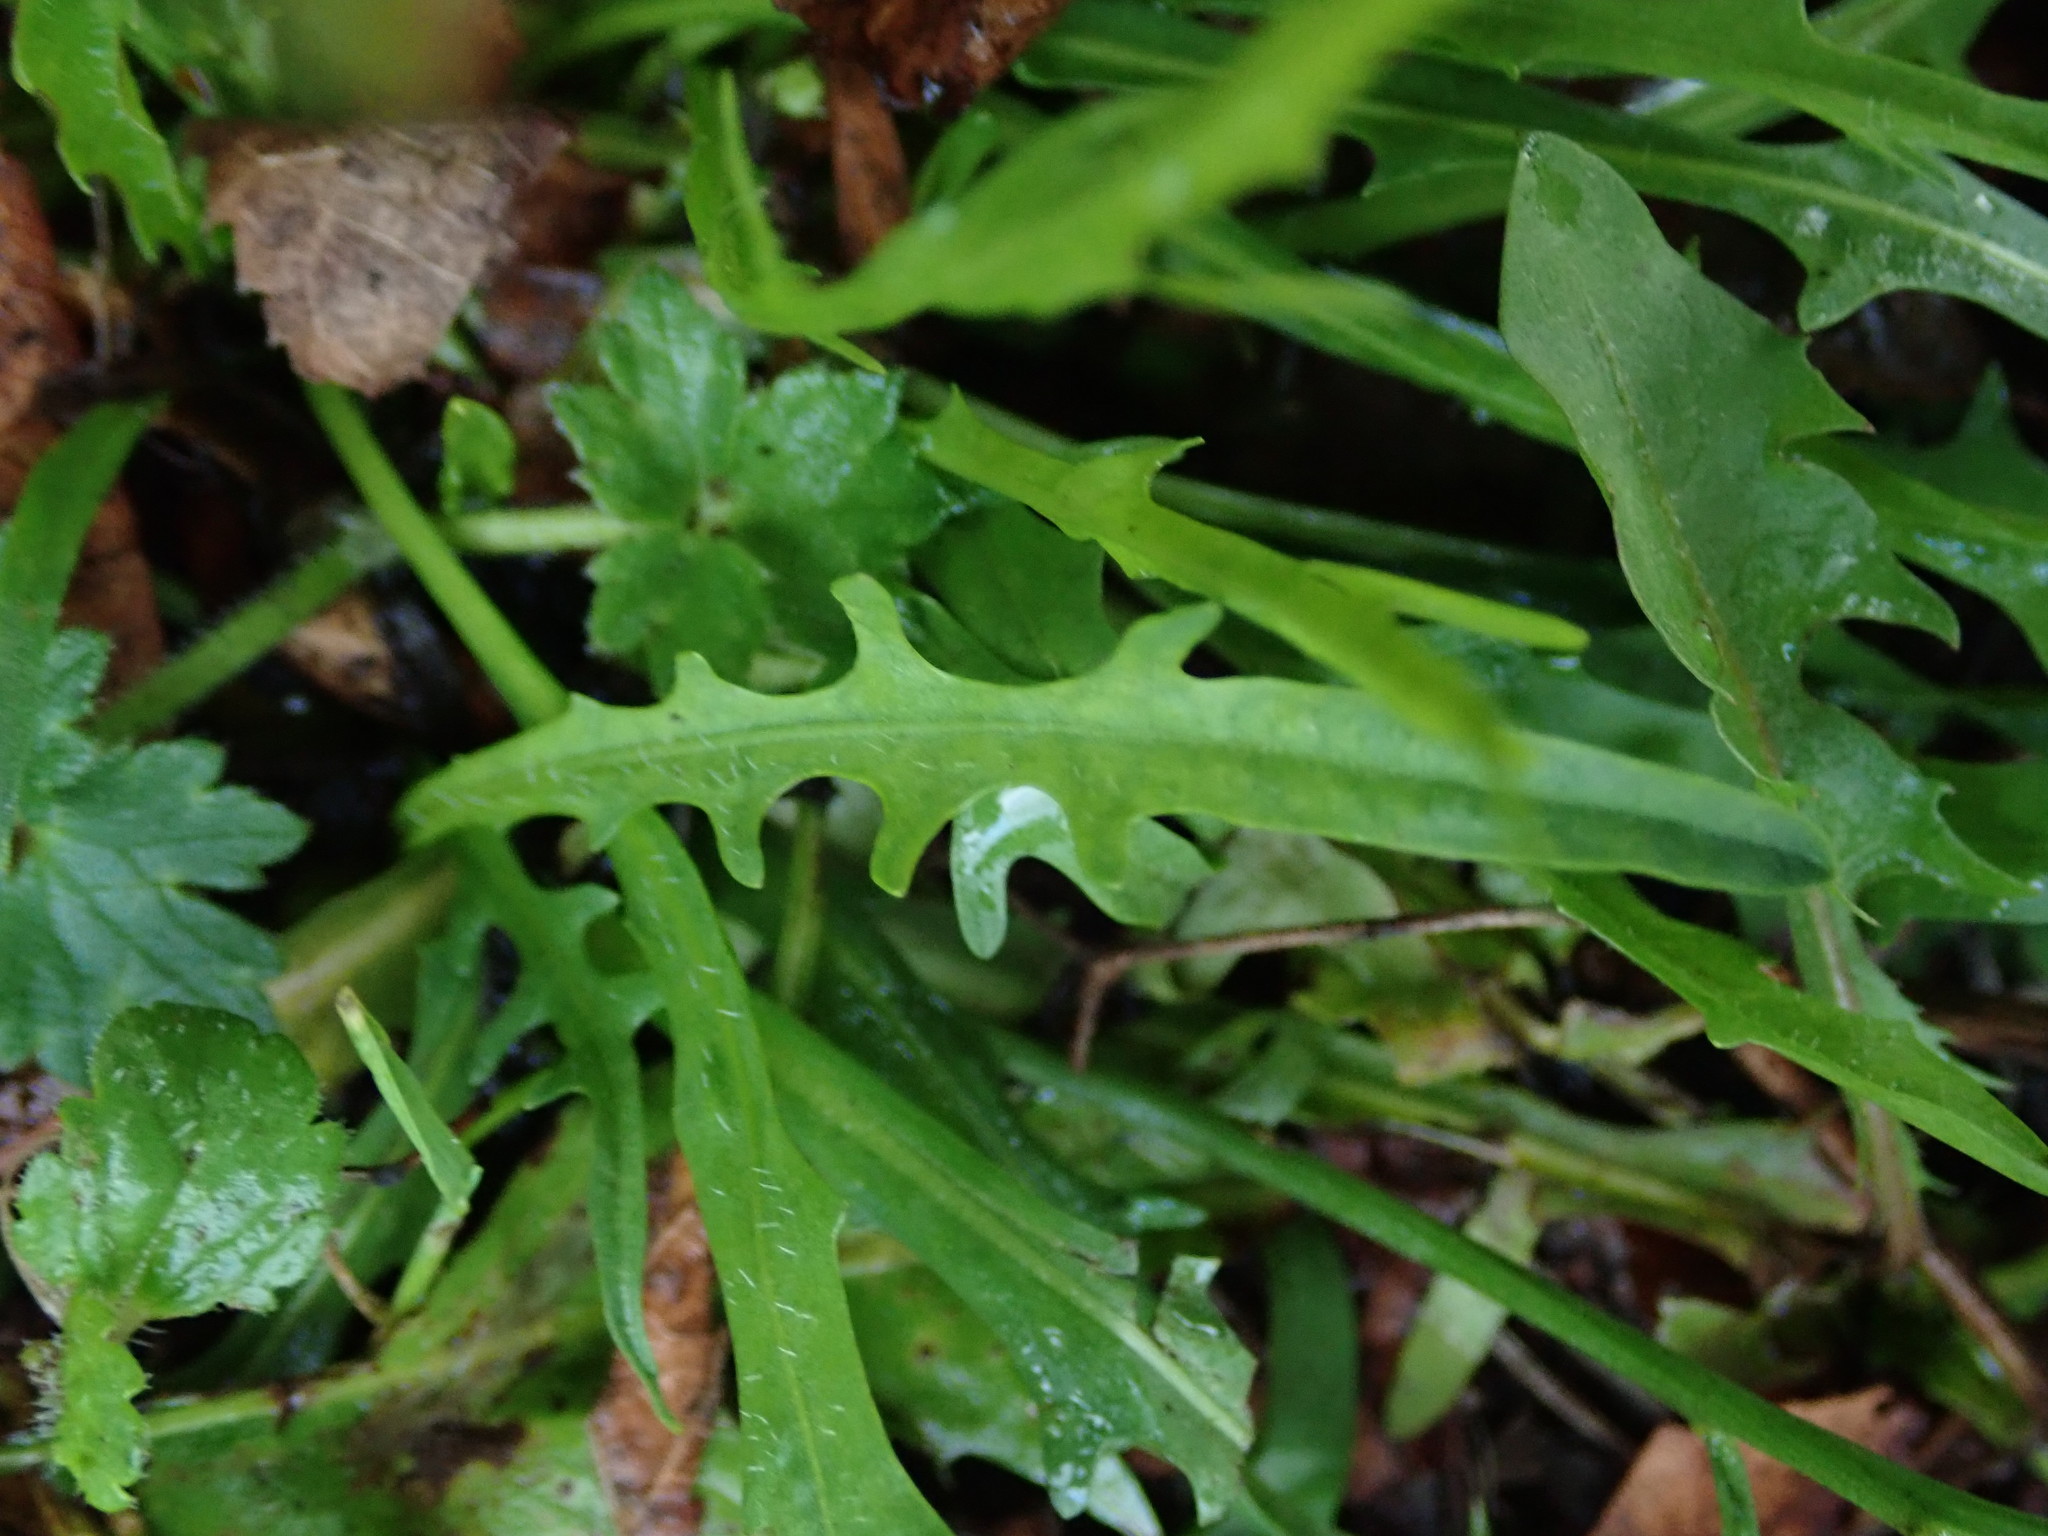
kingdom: Plantae
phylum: Tracheophyta
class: Magnoliopsida
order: Asterales
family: Asteraceae
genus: Scorzoneroides
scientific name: Scorzoneroides autumnalis
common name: Autumn hawkbit
